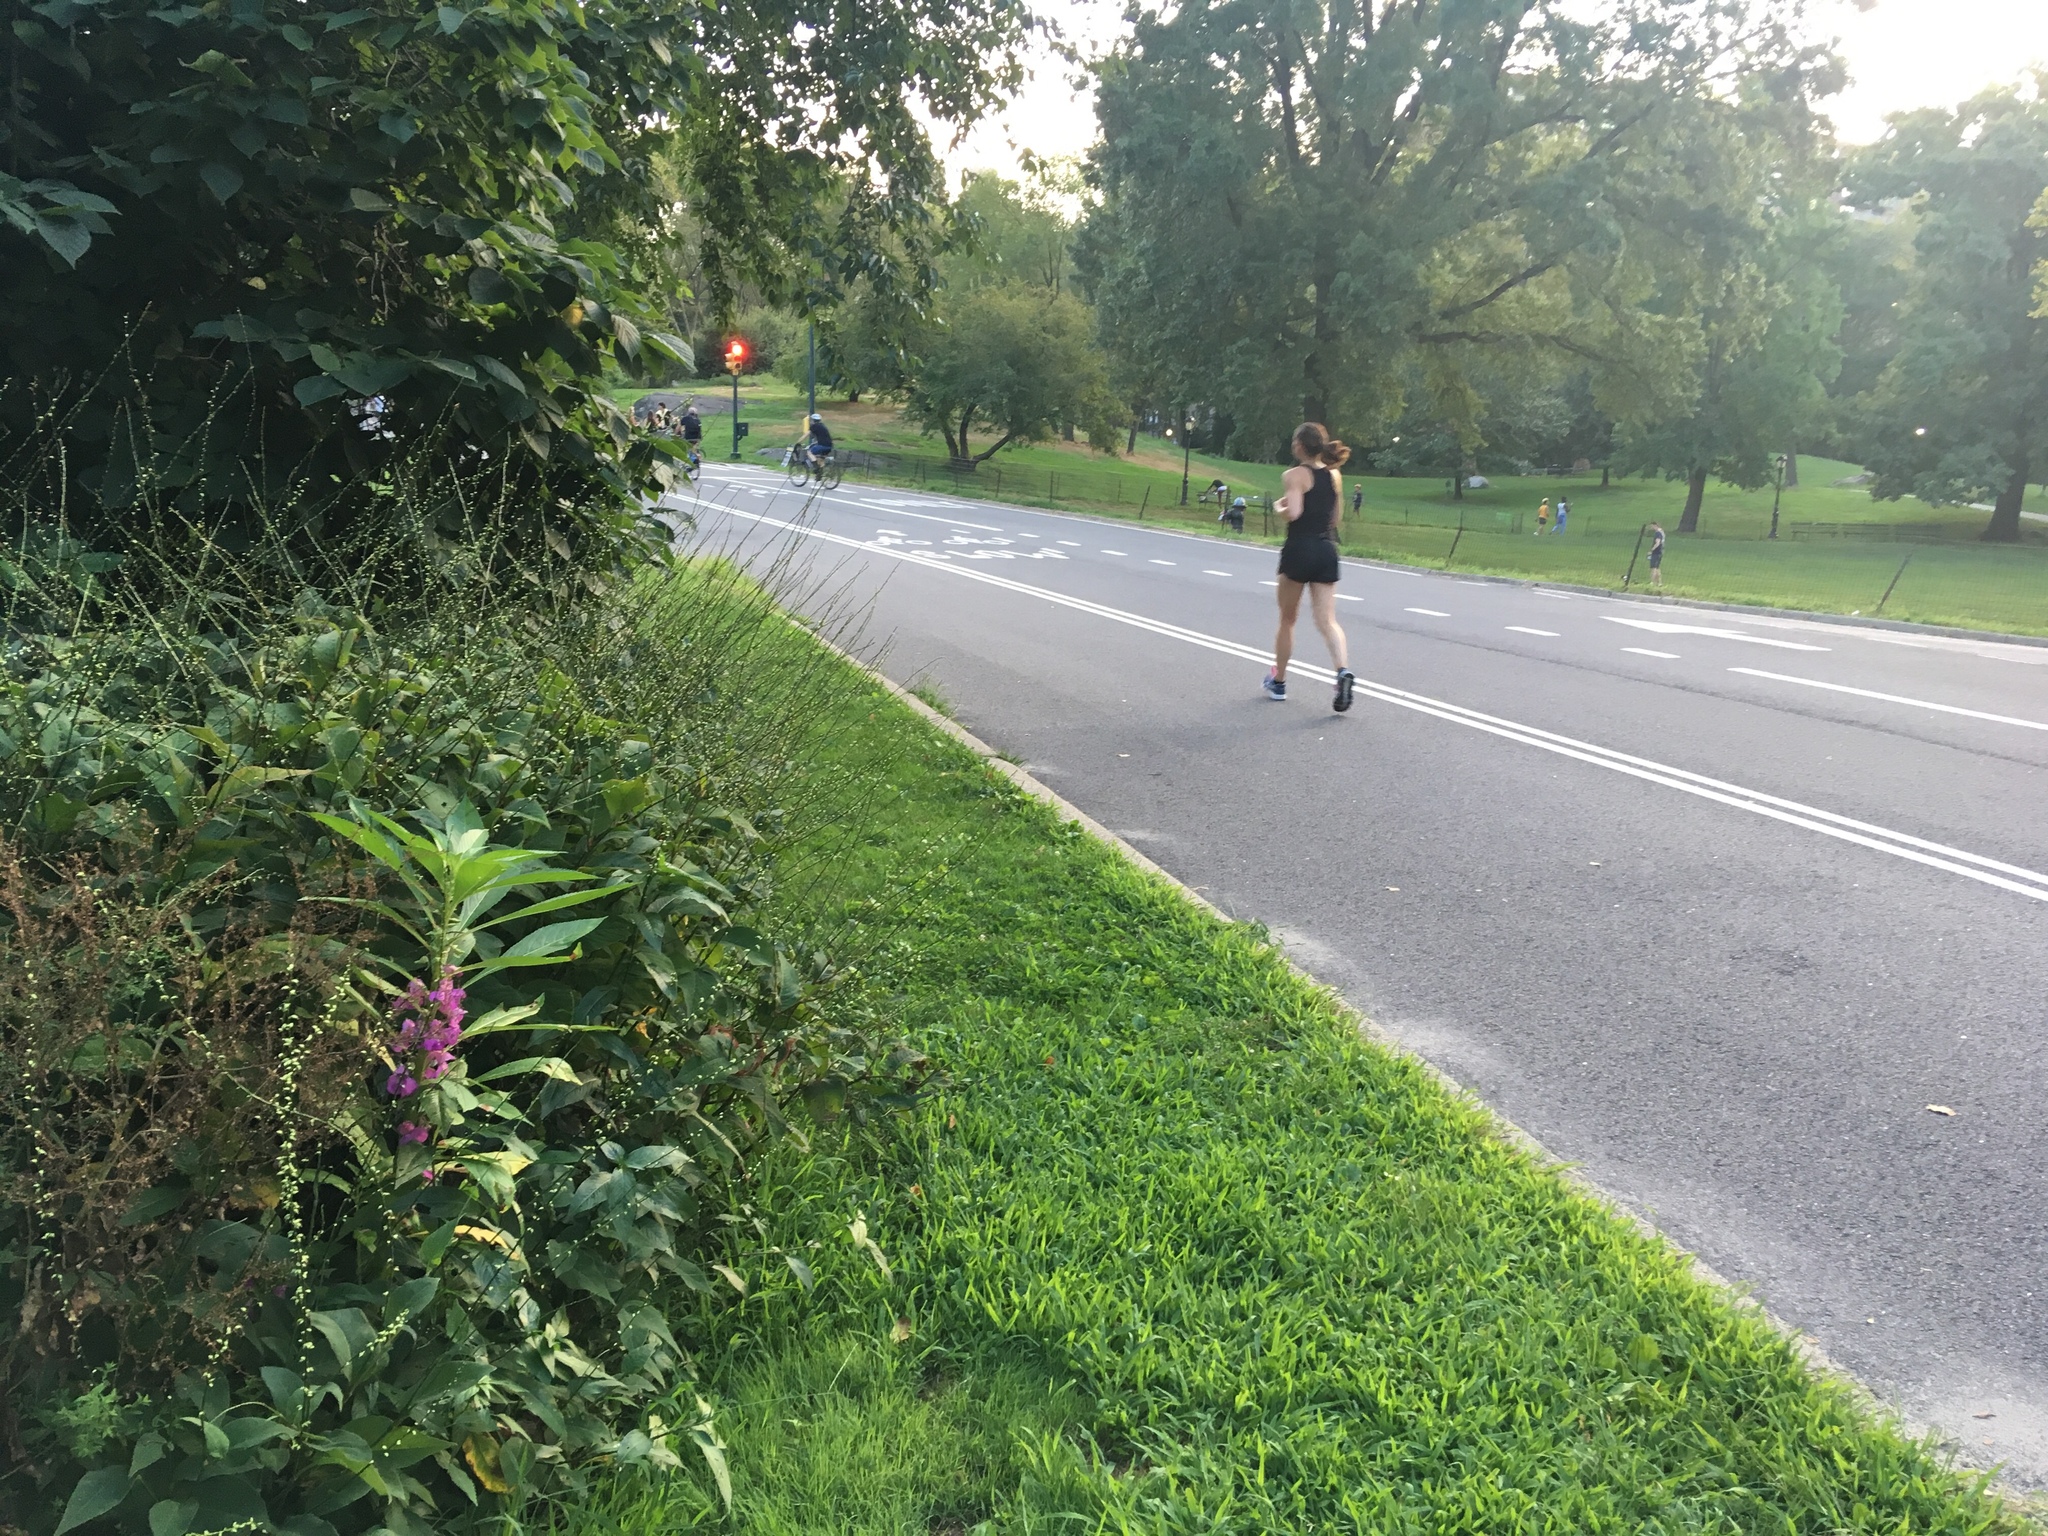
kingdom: Plantae
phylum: Tracheophyta
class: Magnoliopsida
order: Ericales
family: Balsaminaceae
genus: Impatiens
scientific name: Impatiens balsamina
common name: Balsam
